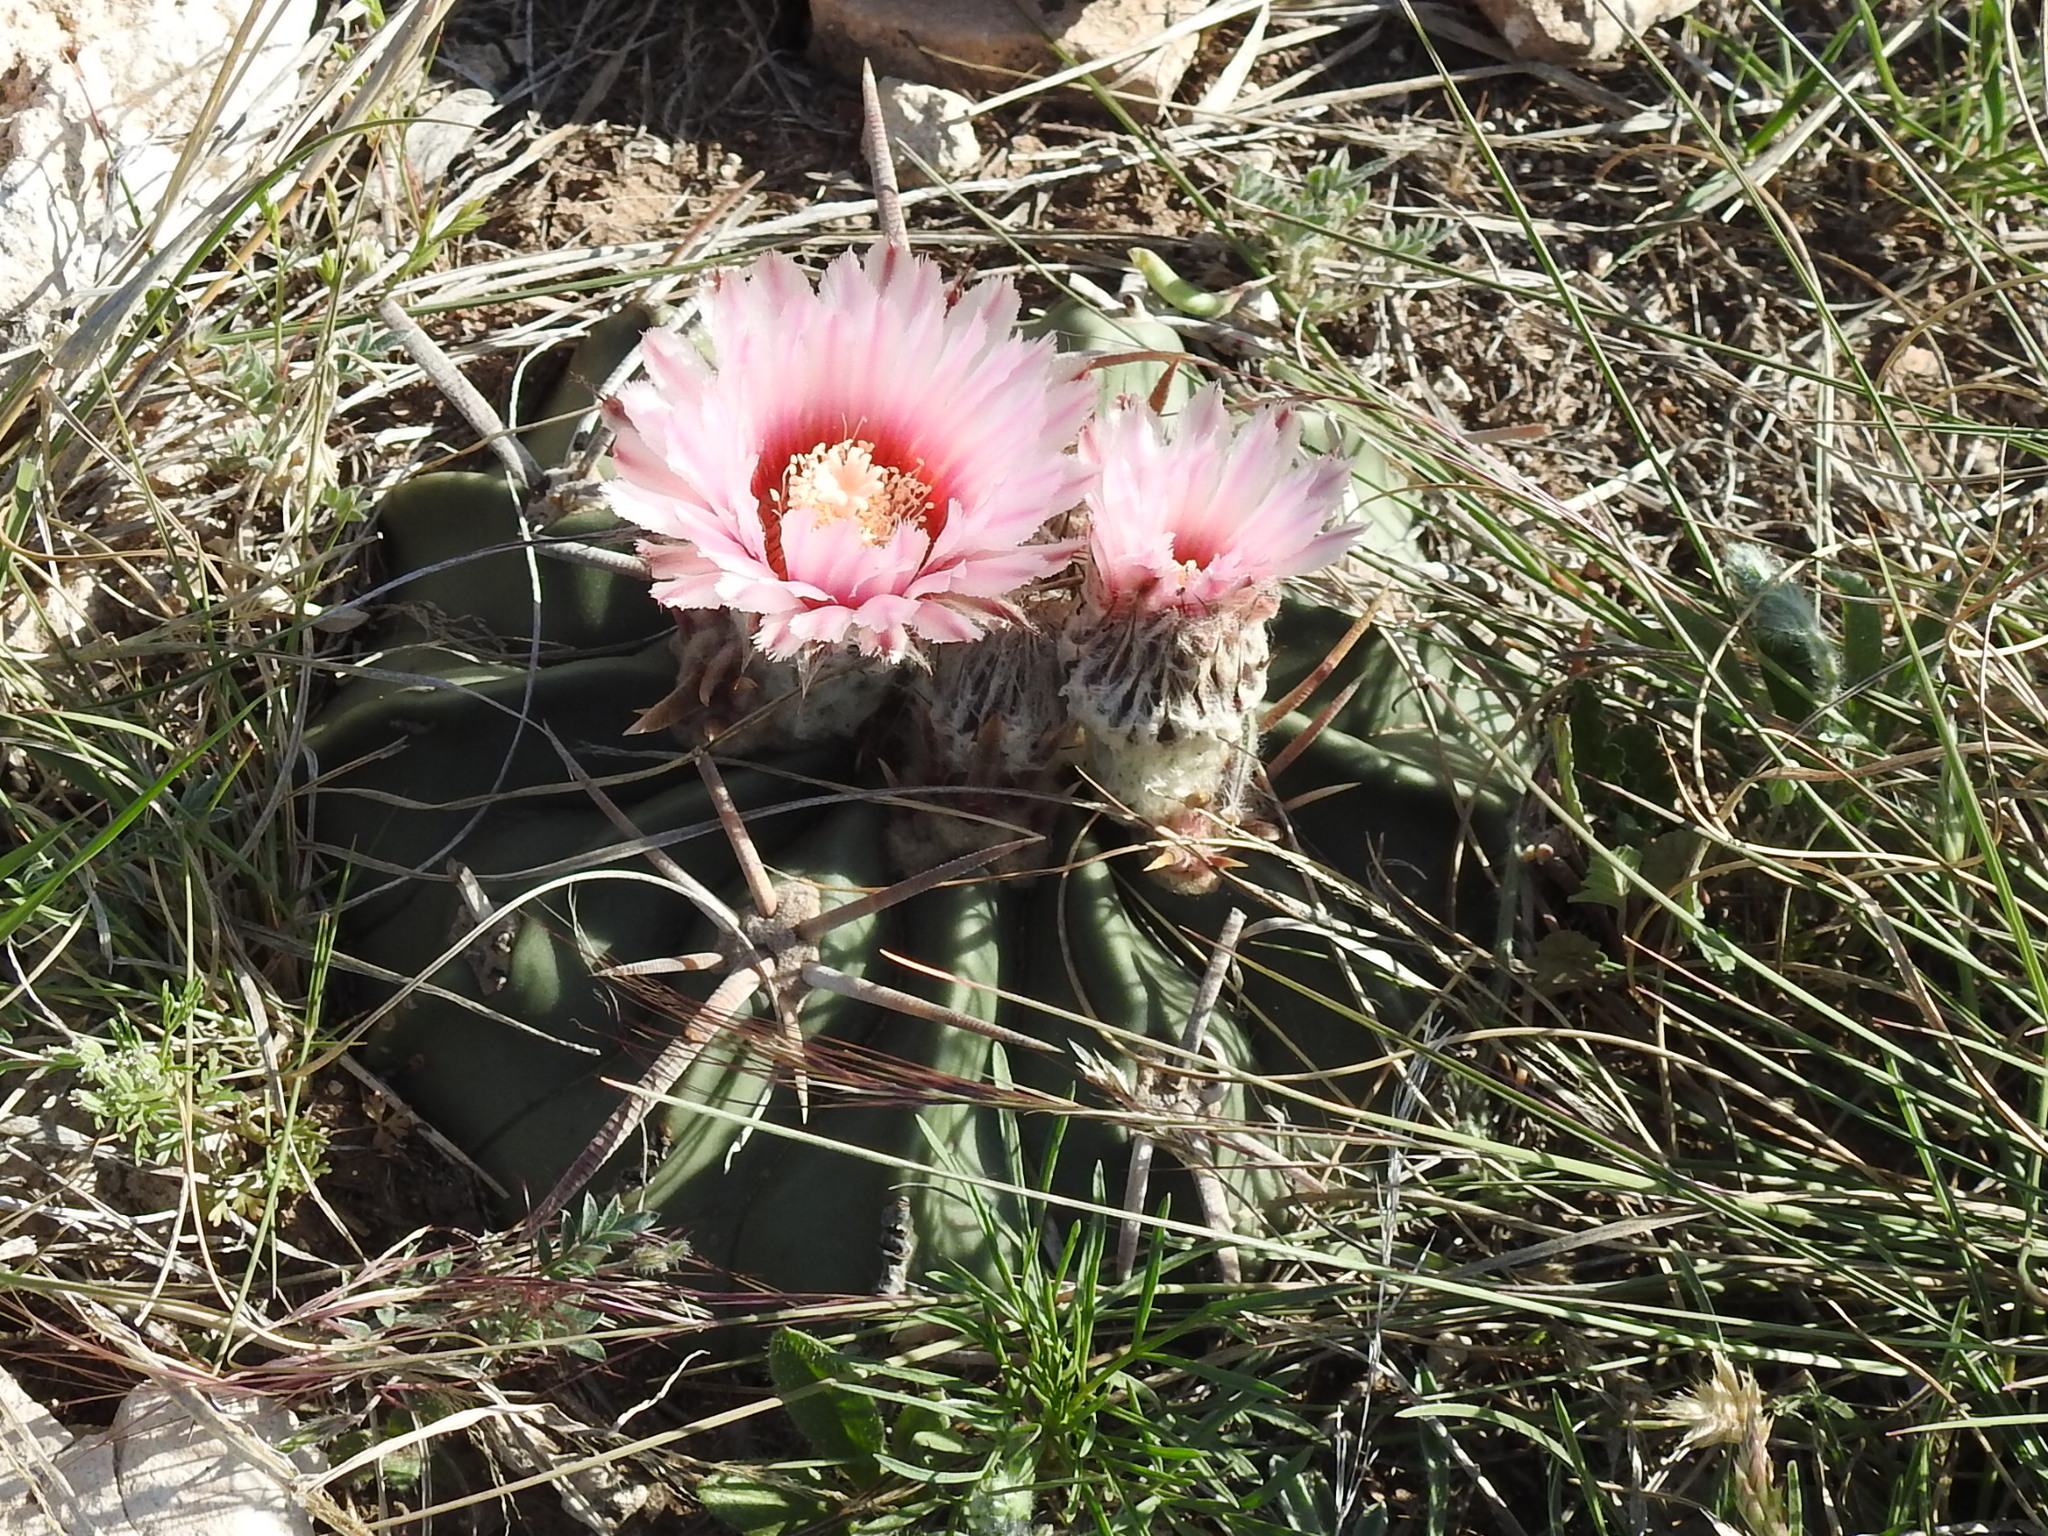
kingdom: Plantae
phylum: Tracheophyta
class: Magnoliopsida
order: Caryophyllales
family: Cactaceae
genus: Echinocactus
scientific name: Echinocactus texensis
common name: Devil's pincushion
